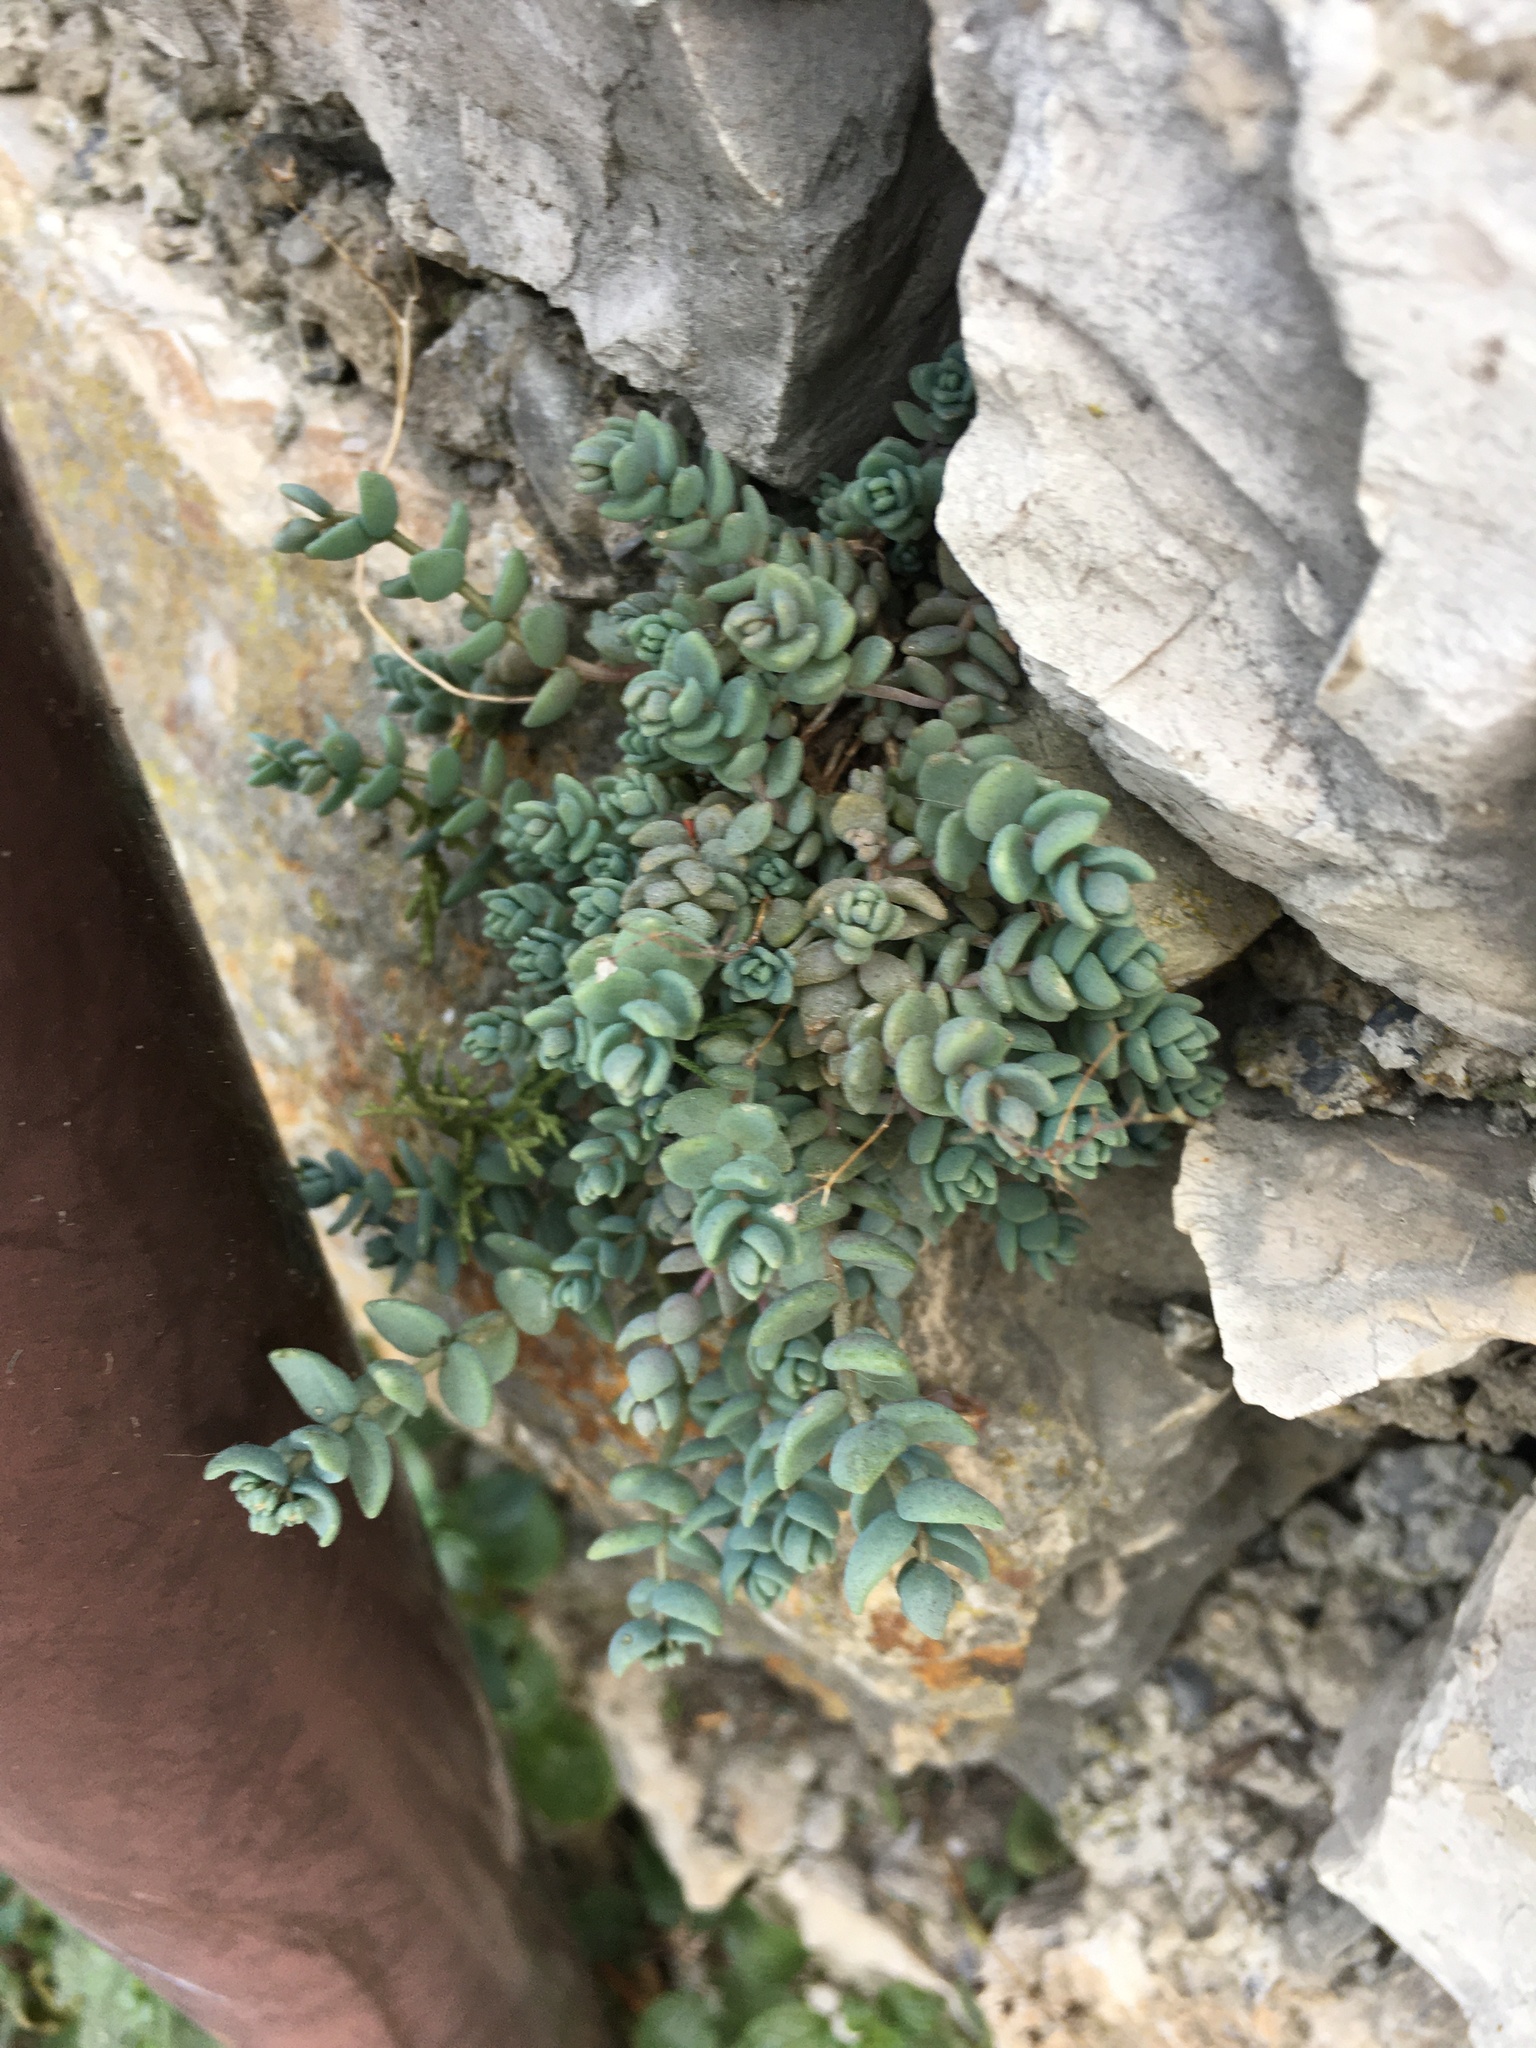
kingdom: Plantae
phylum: Tracheophyta
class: Magnoliopsida
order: Saxifragales
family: Crassulaceae
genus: Sedum
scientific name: Sedum dasyphyllum
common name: Thick-leaf stonecrop
